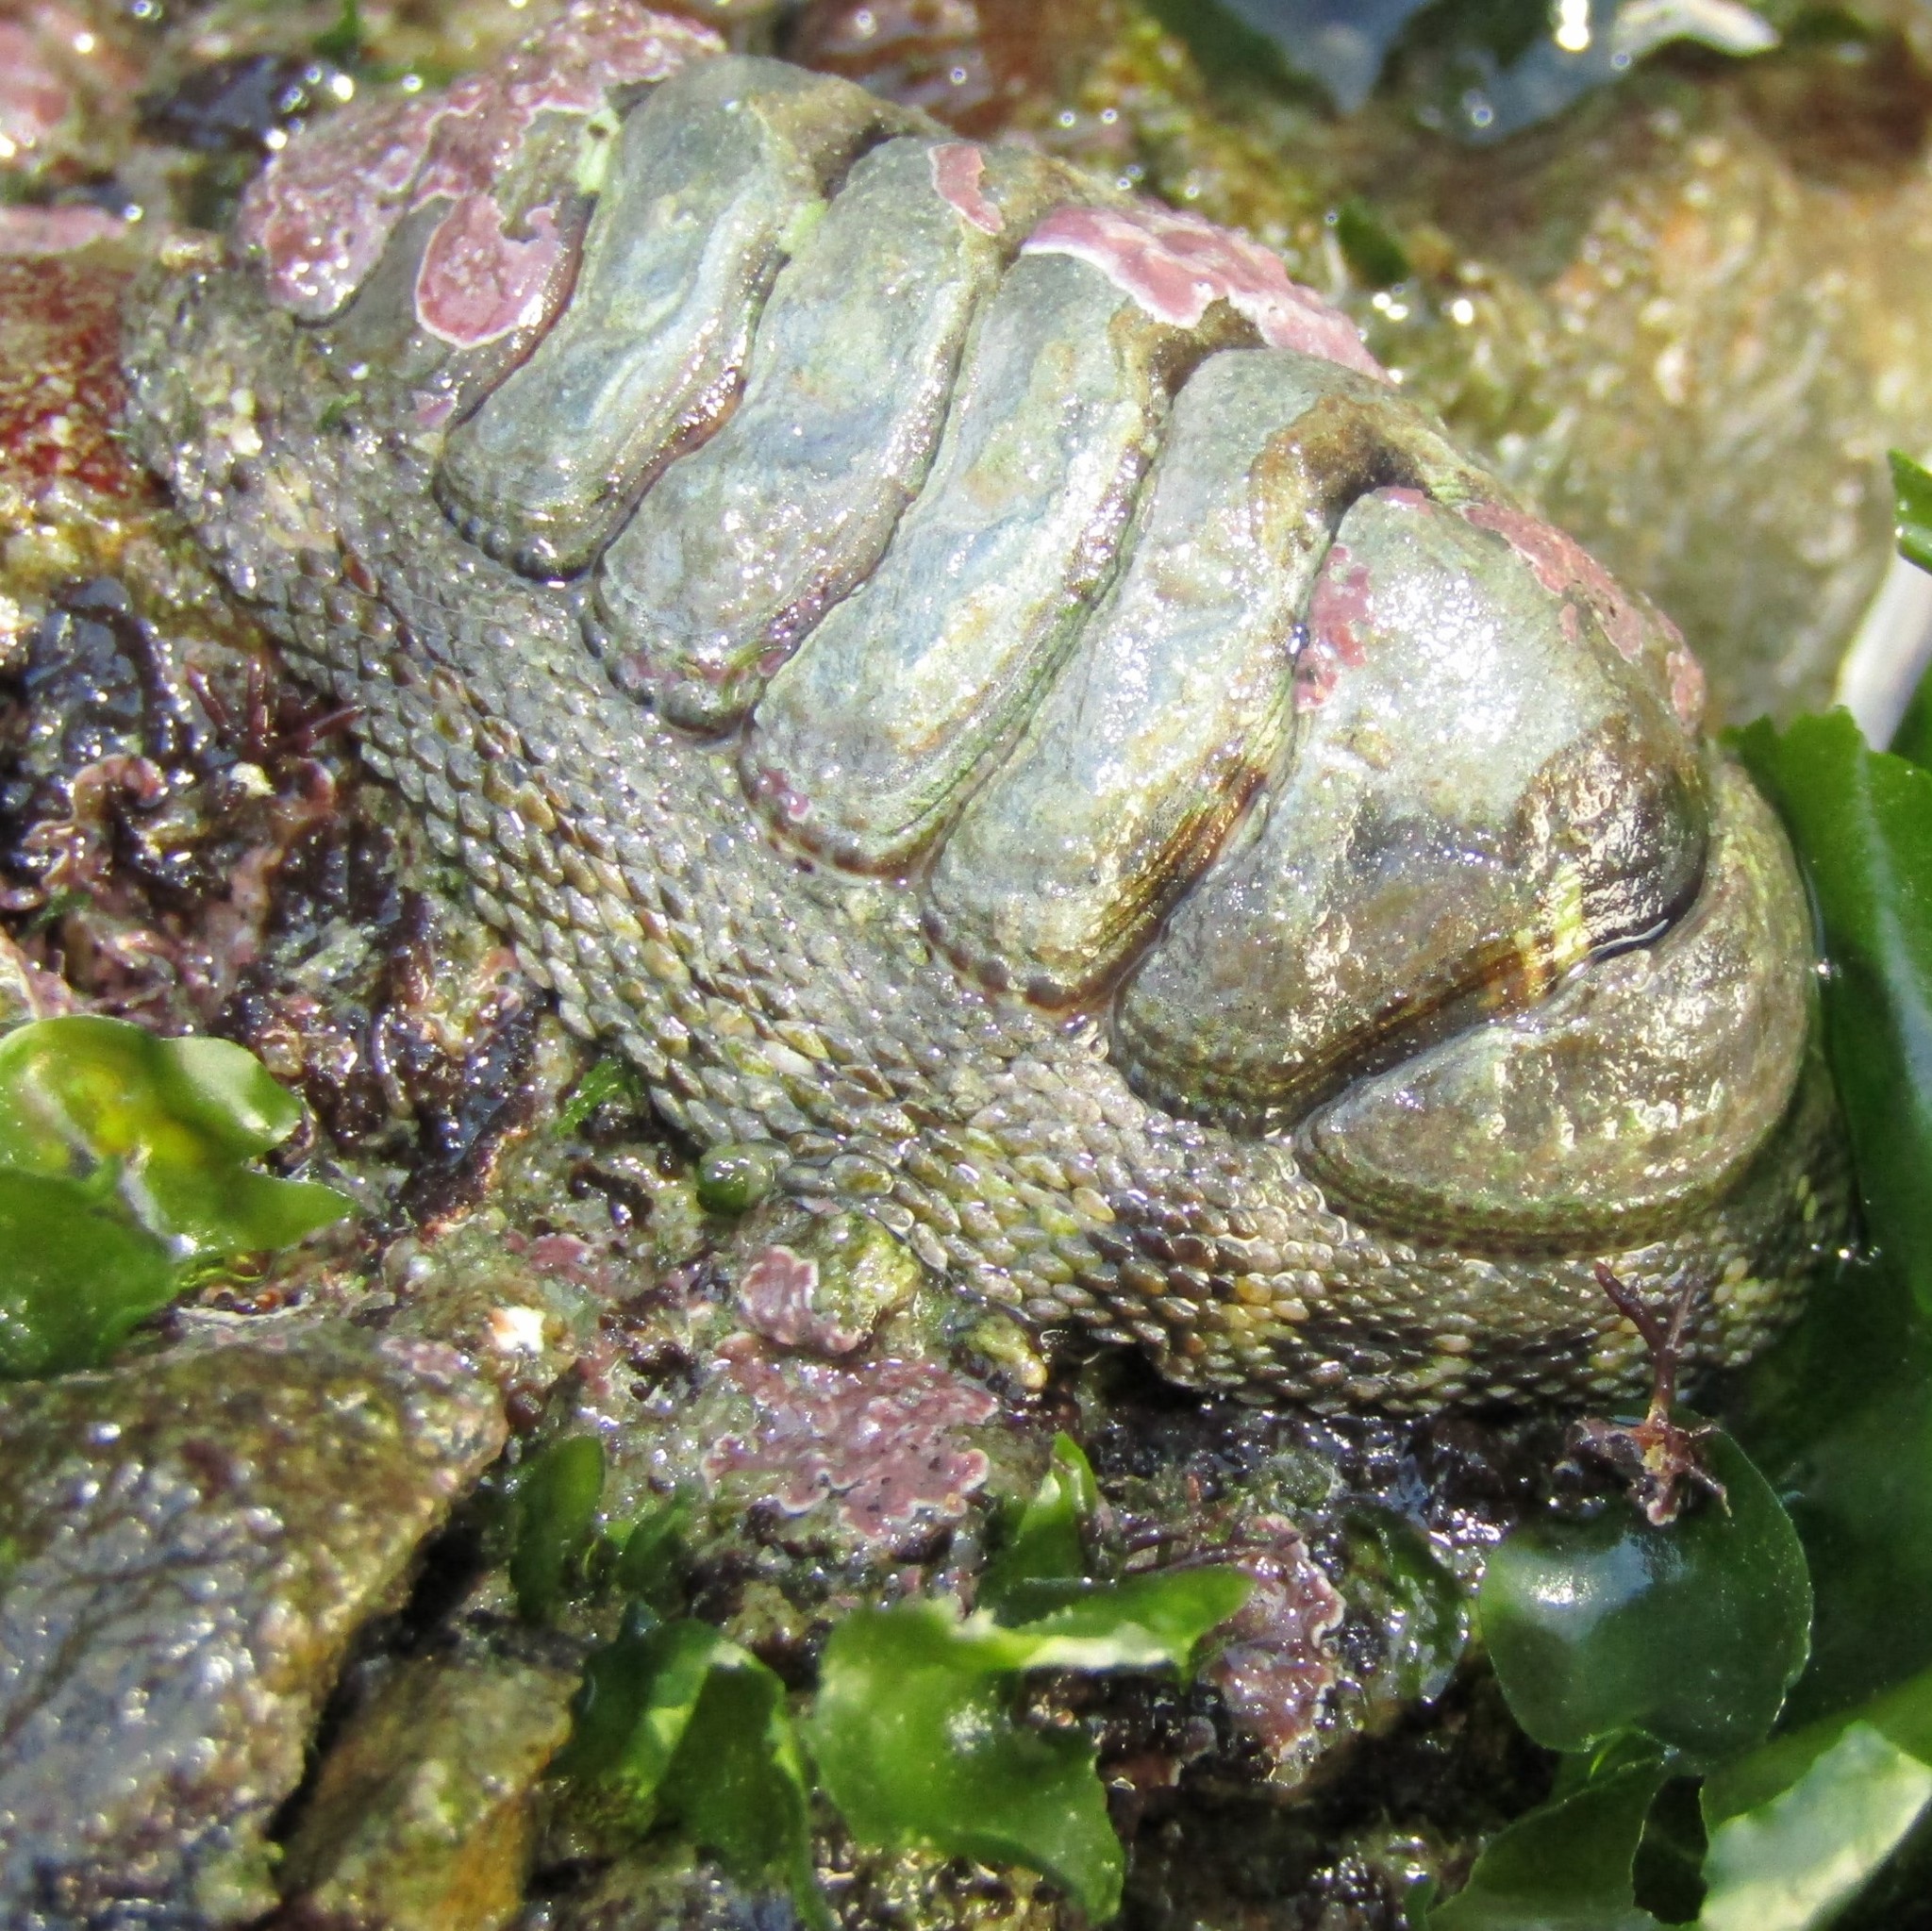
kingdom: Animalia
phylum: Mollusca
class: Polyplacophora
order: Chitonida
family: Chitonidae
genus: Sypharochiton
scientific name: Sypharochiton pelliserpentis
